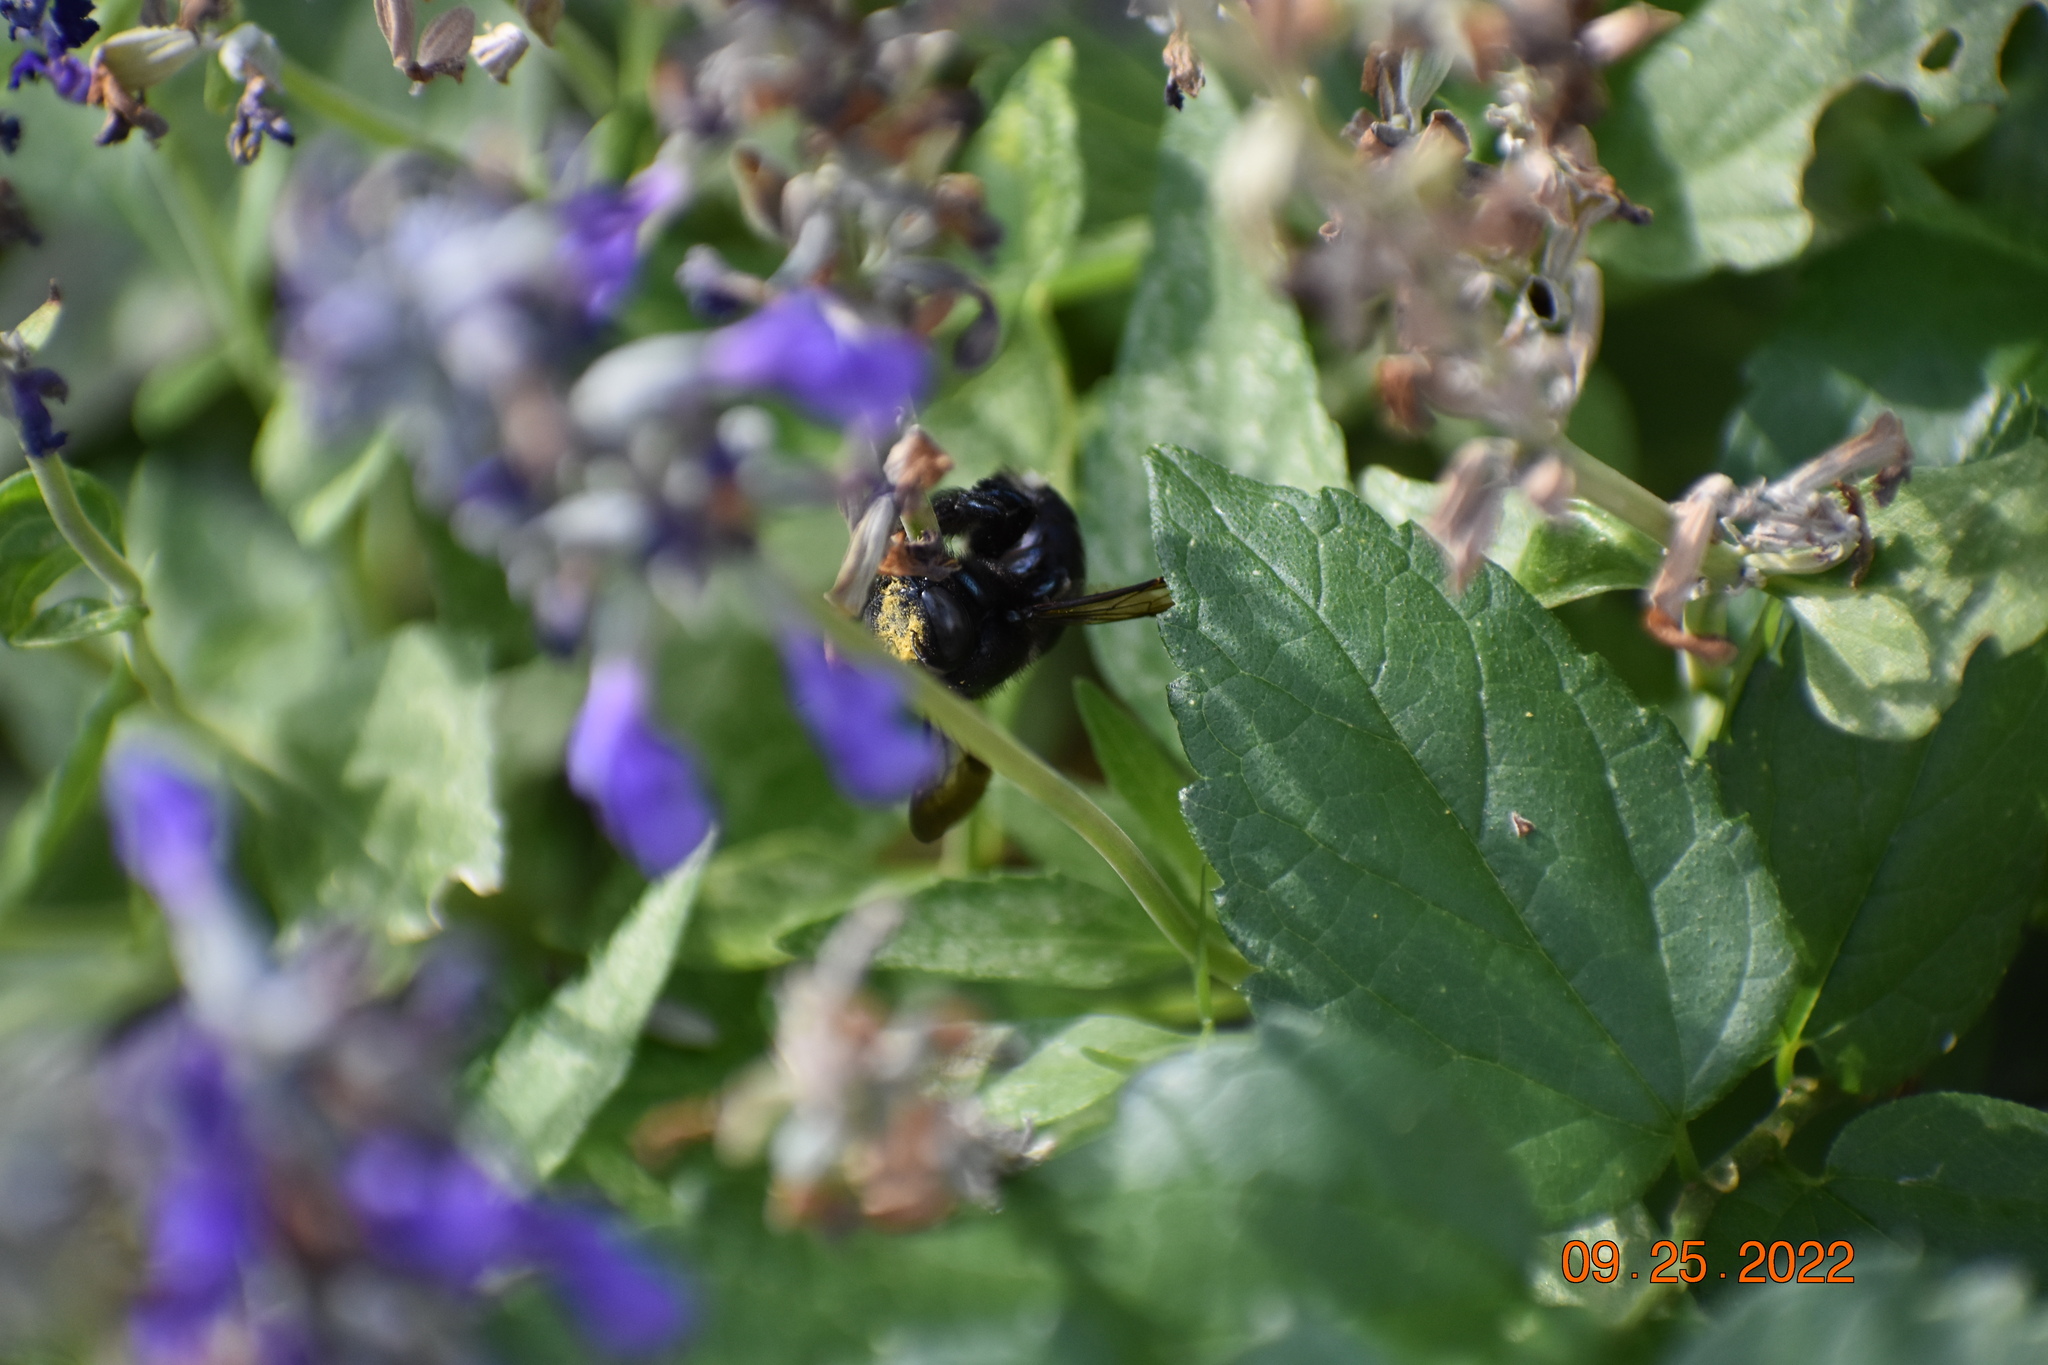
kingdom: Animalia
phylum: Arthropoda
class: Insecta
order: Hymenoptera
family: Apidae
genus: Xylocopa
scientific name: Xylocopa micans
